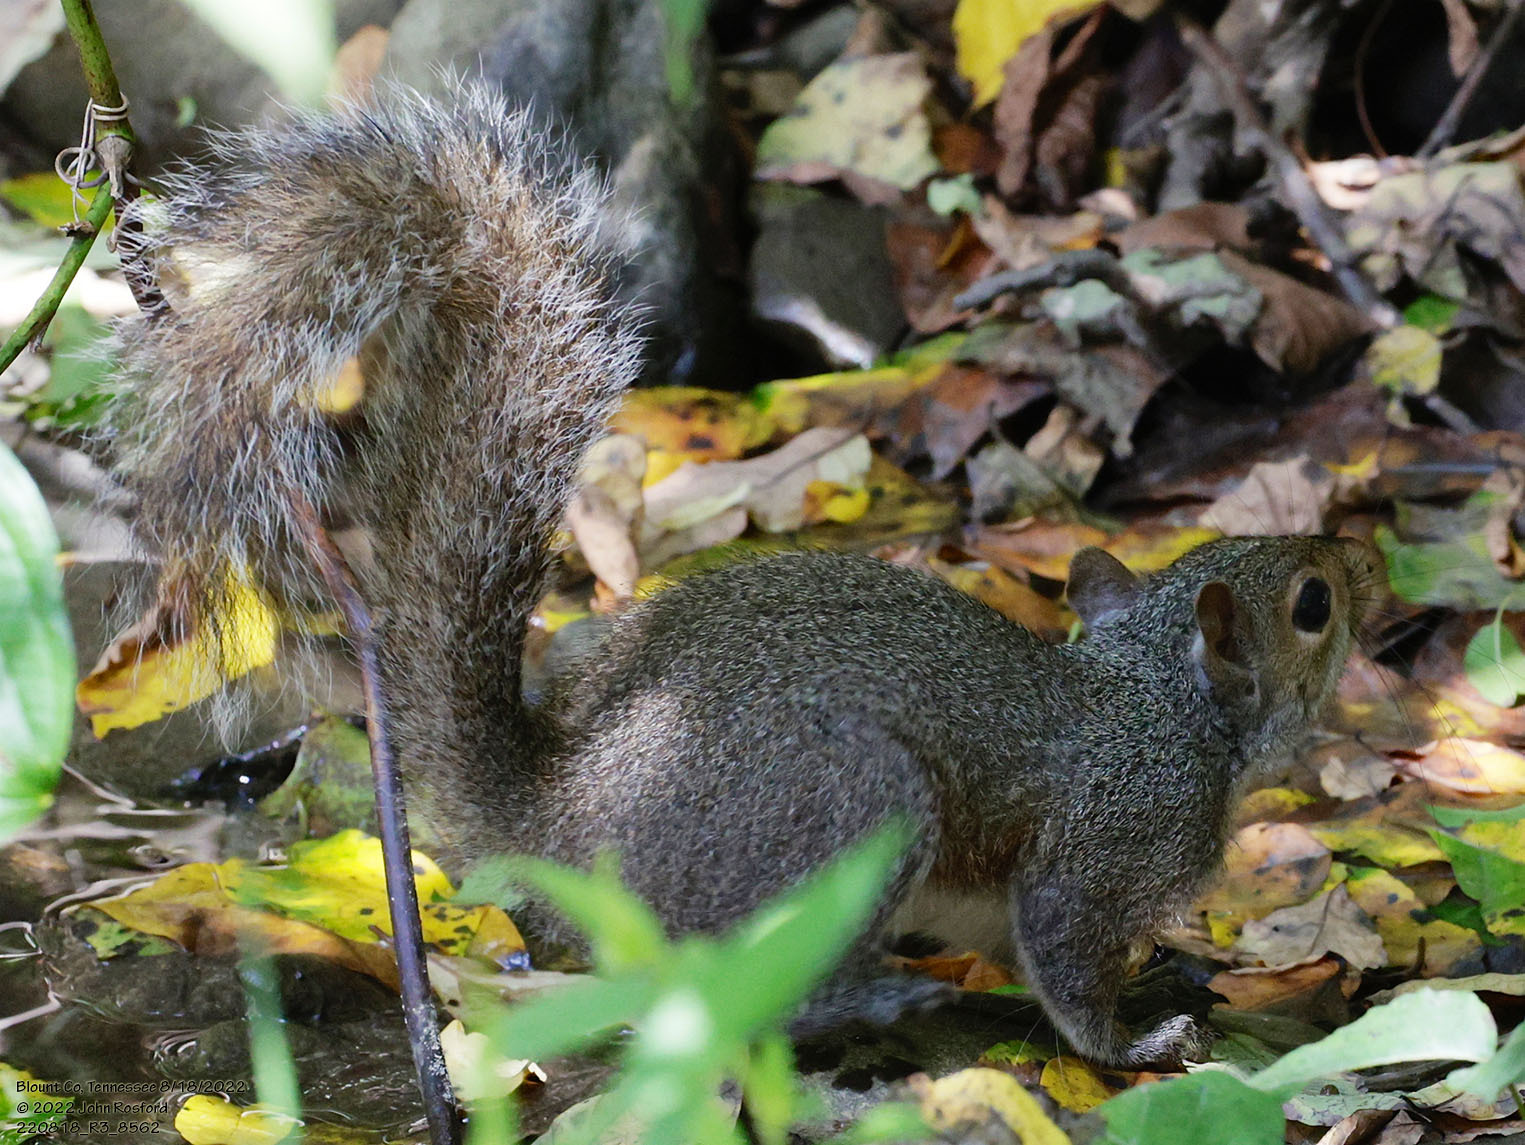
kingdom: Animalia
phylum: Chordata
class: Mammalia
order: Rodentia
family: Sciuridae
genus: Sciurus
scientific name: Sciurus carolinensis
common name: Eastern gray squirrel
